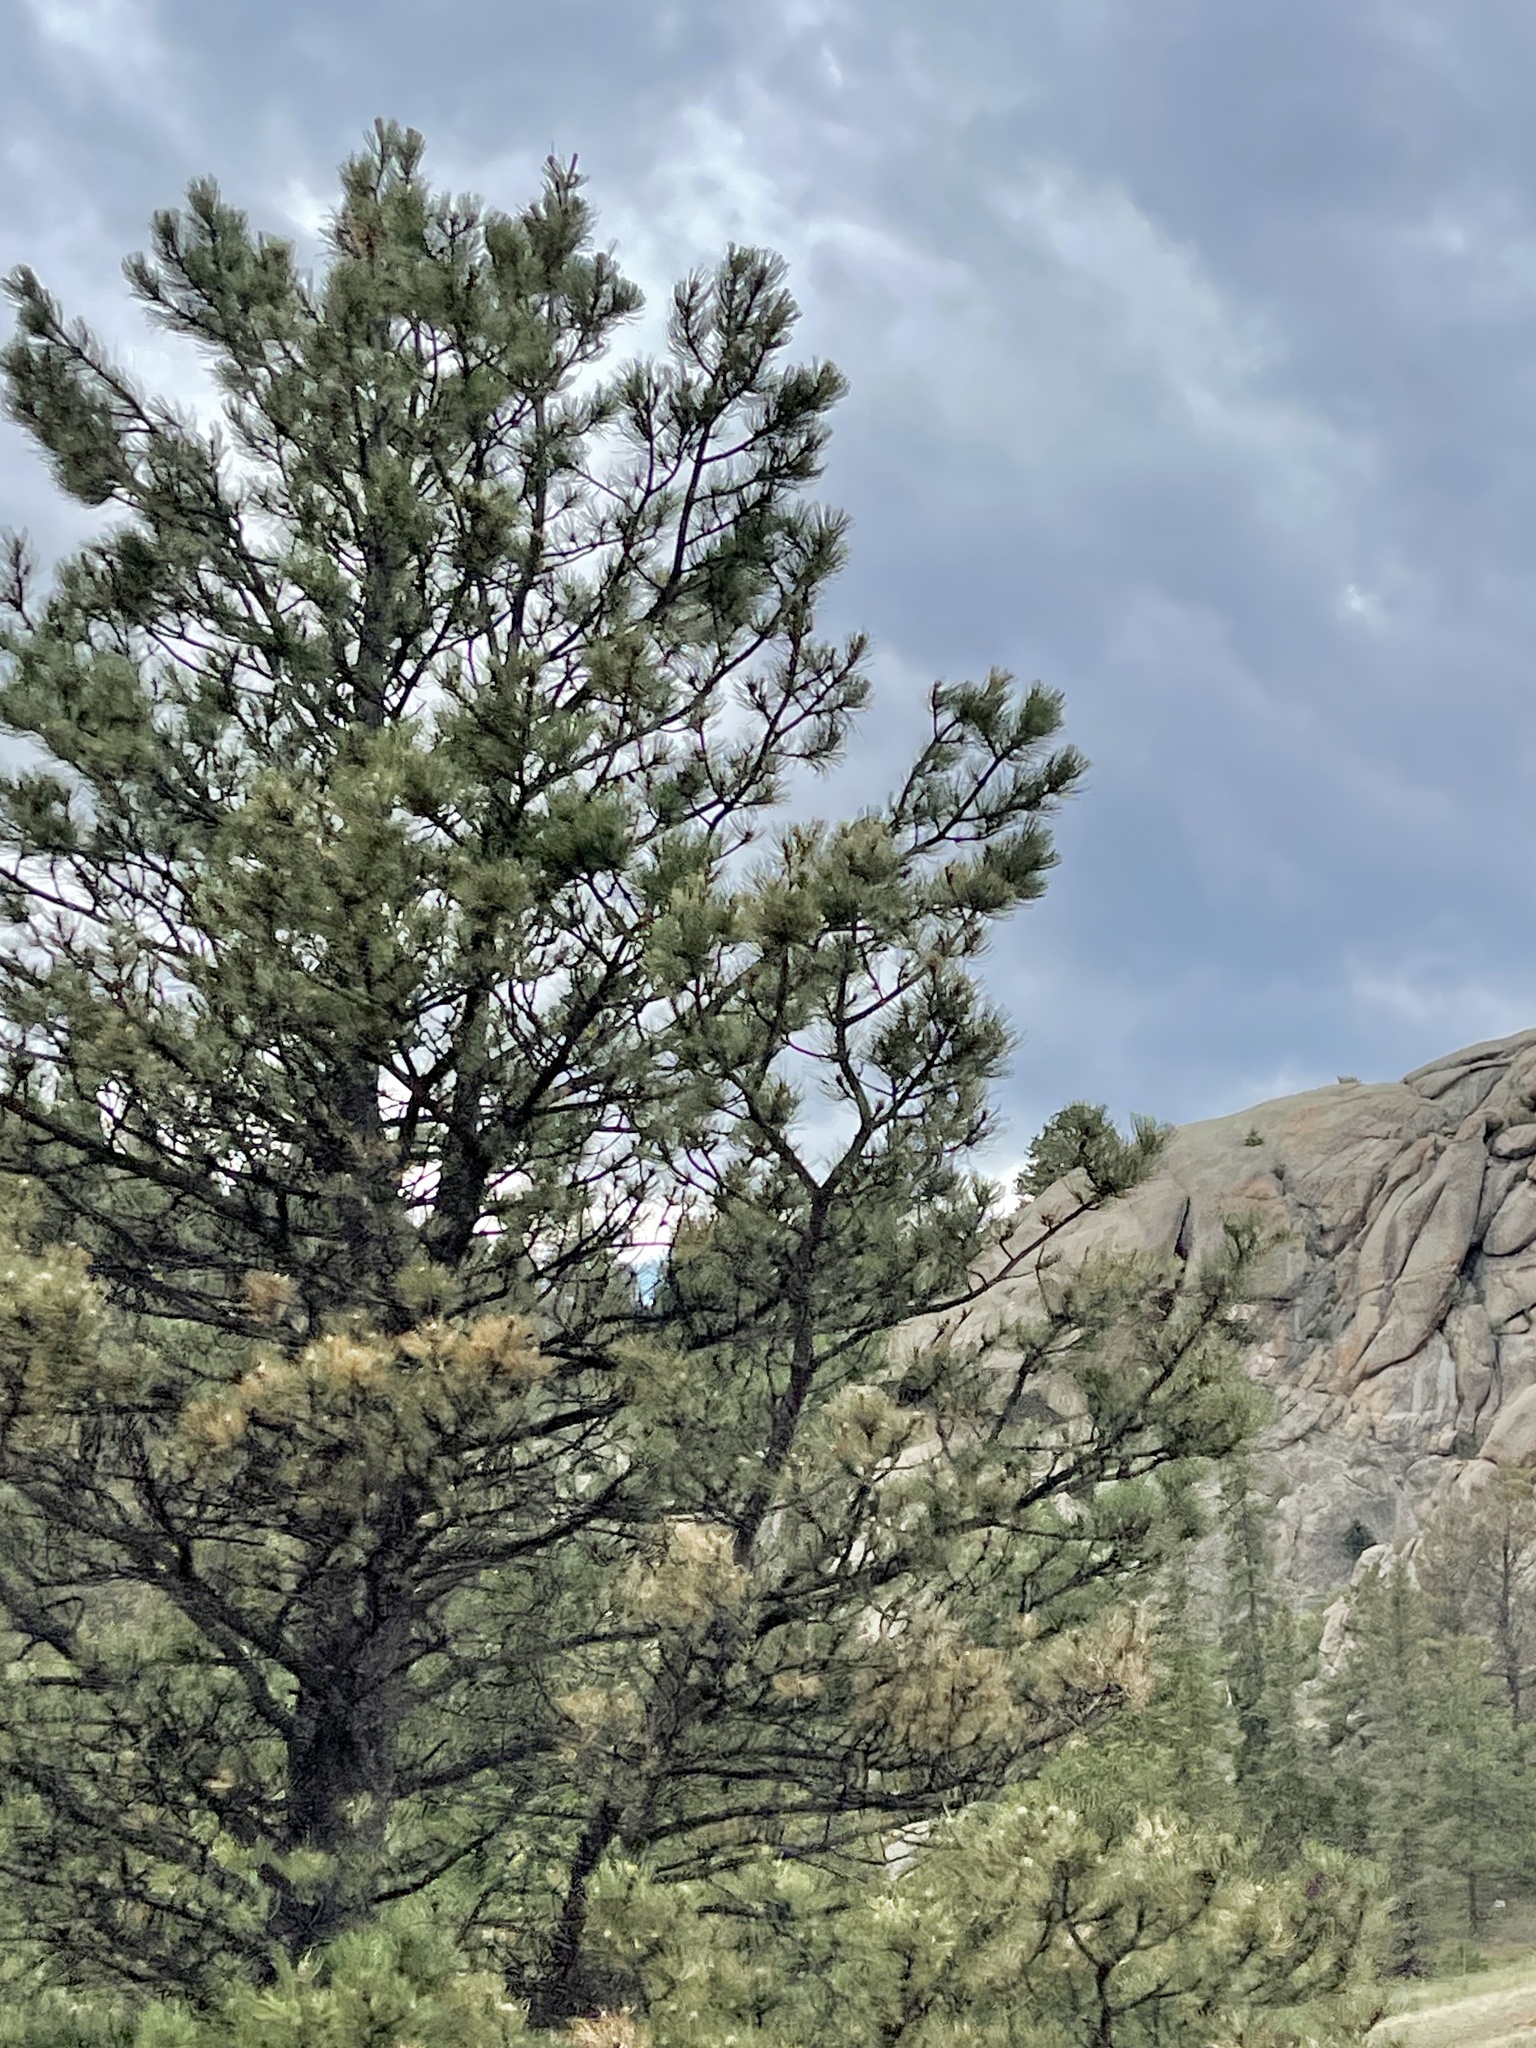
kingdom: Plantae
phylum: Tracheophyta
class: Pinopsida
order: Pinales
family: Pinaceae
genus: Pinus
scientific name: Pinus ponderosa
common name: Western yellow-pine
